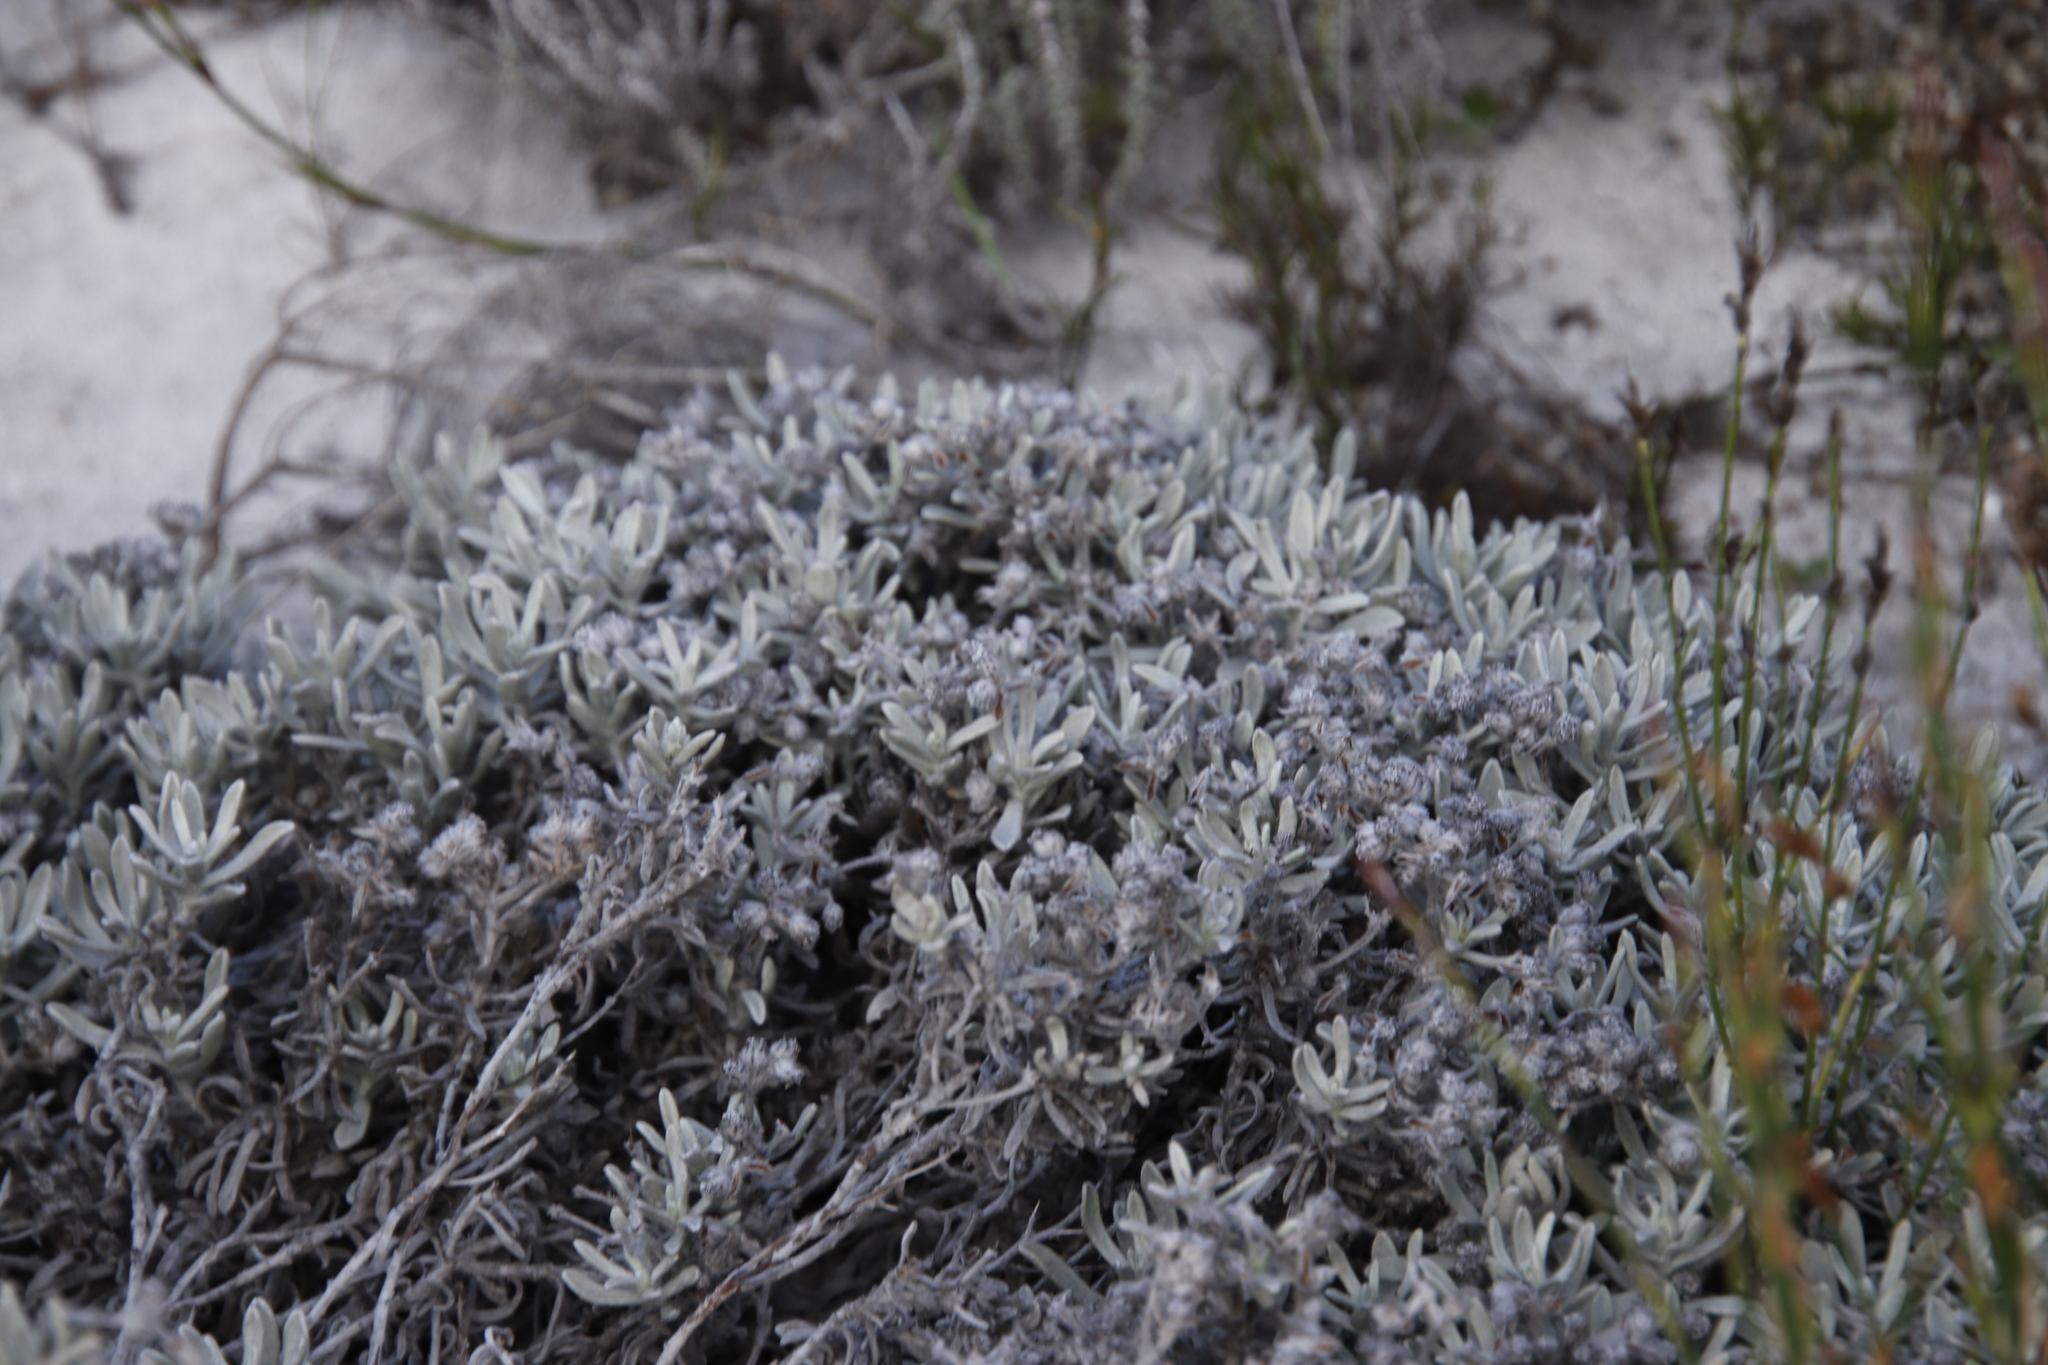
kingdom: Plantae
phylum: Tracheophyta
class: Magnoliopsida
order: Asterales
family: Asteraceae
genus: Petalacte
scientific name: Petalacte coronata
